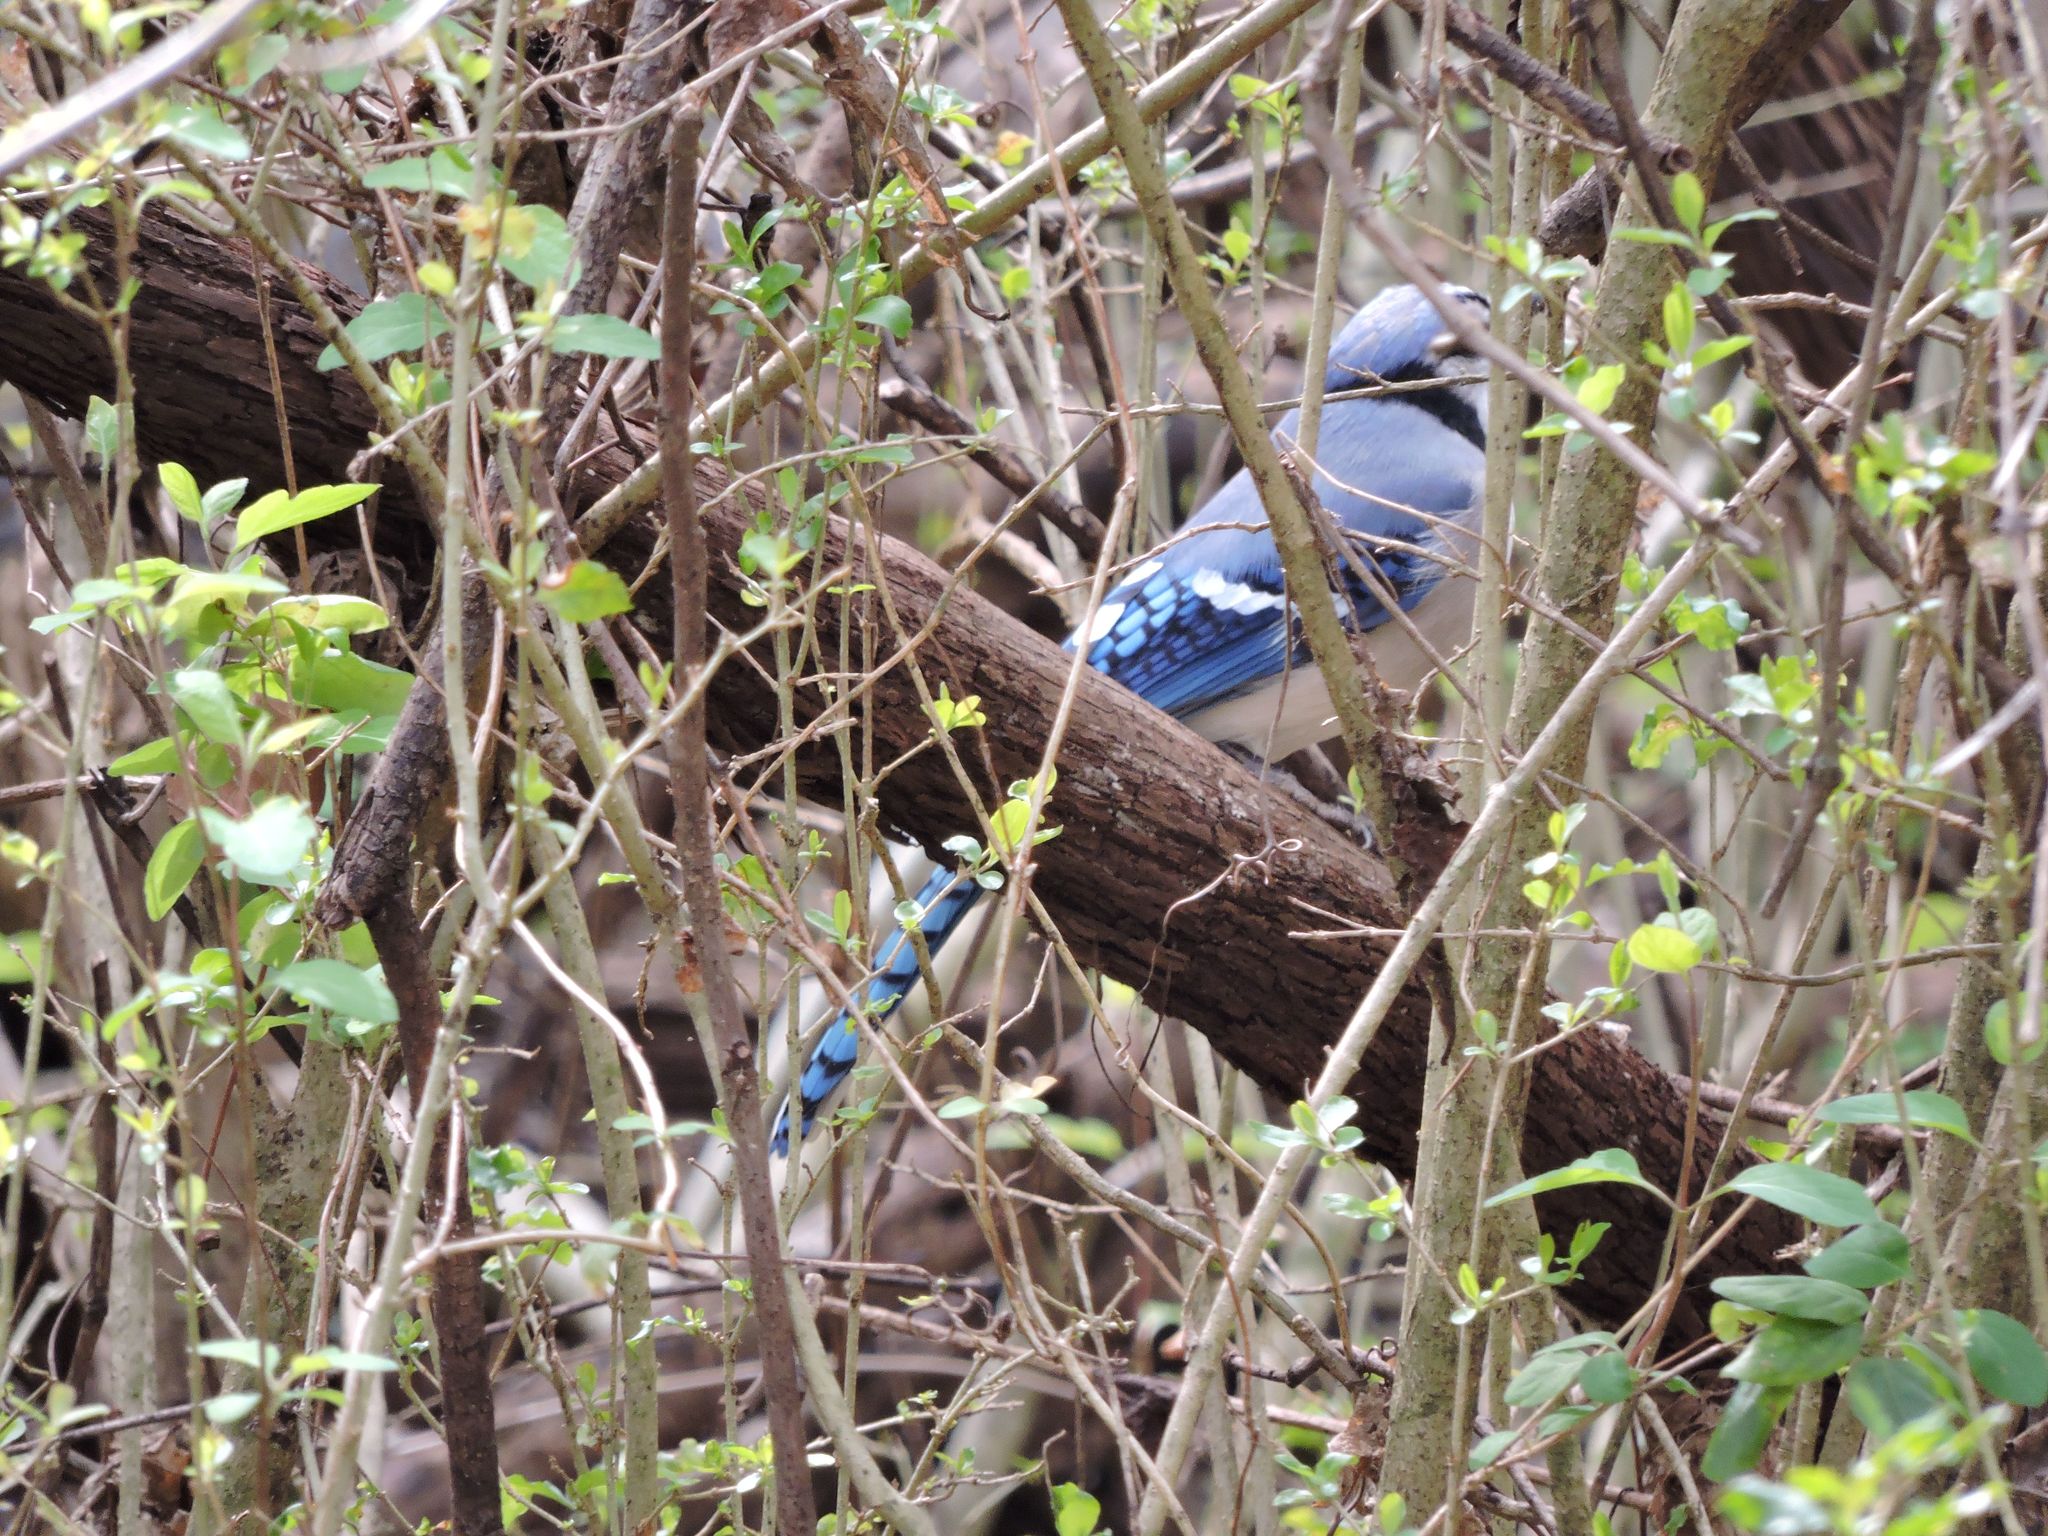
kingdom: Animalia
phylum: Chordata
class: Aves
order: Passeriformes
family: Corvidae
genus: Cyanocitta
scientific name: Cyanocitta cristata
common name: Blue jay
